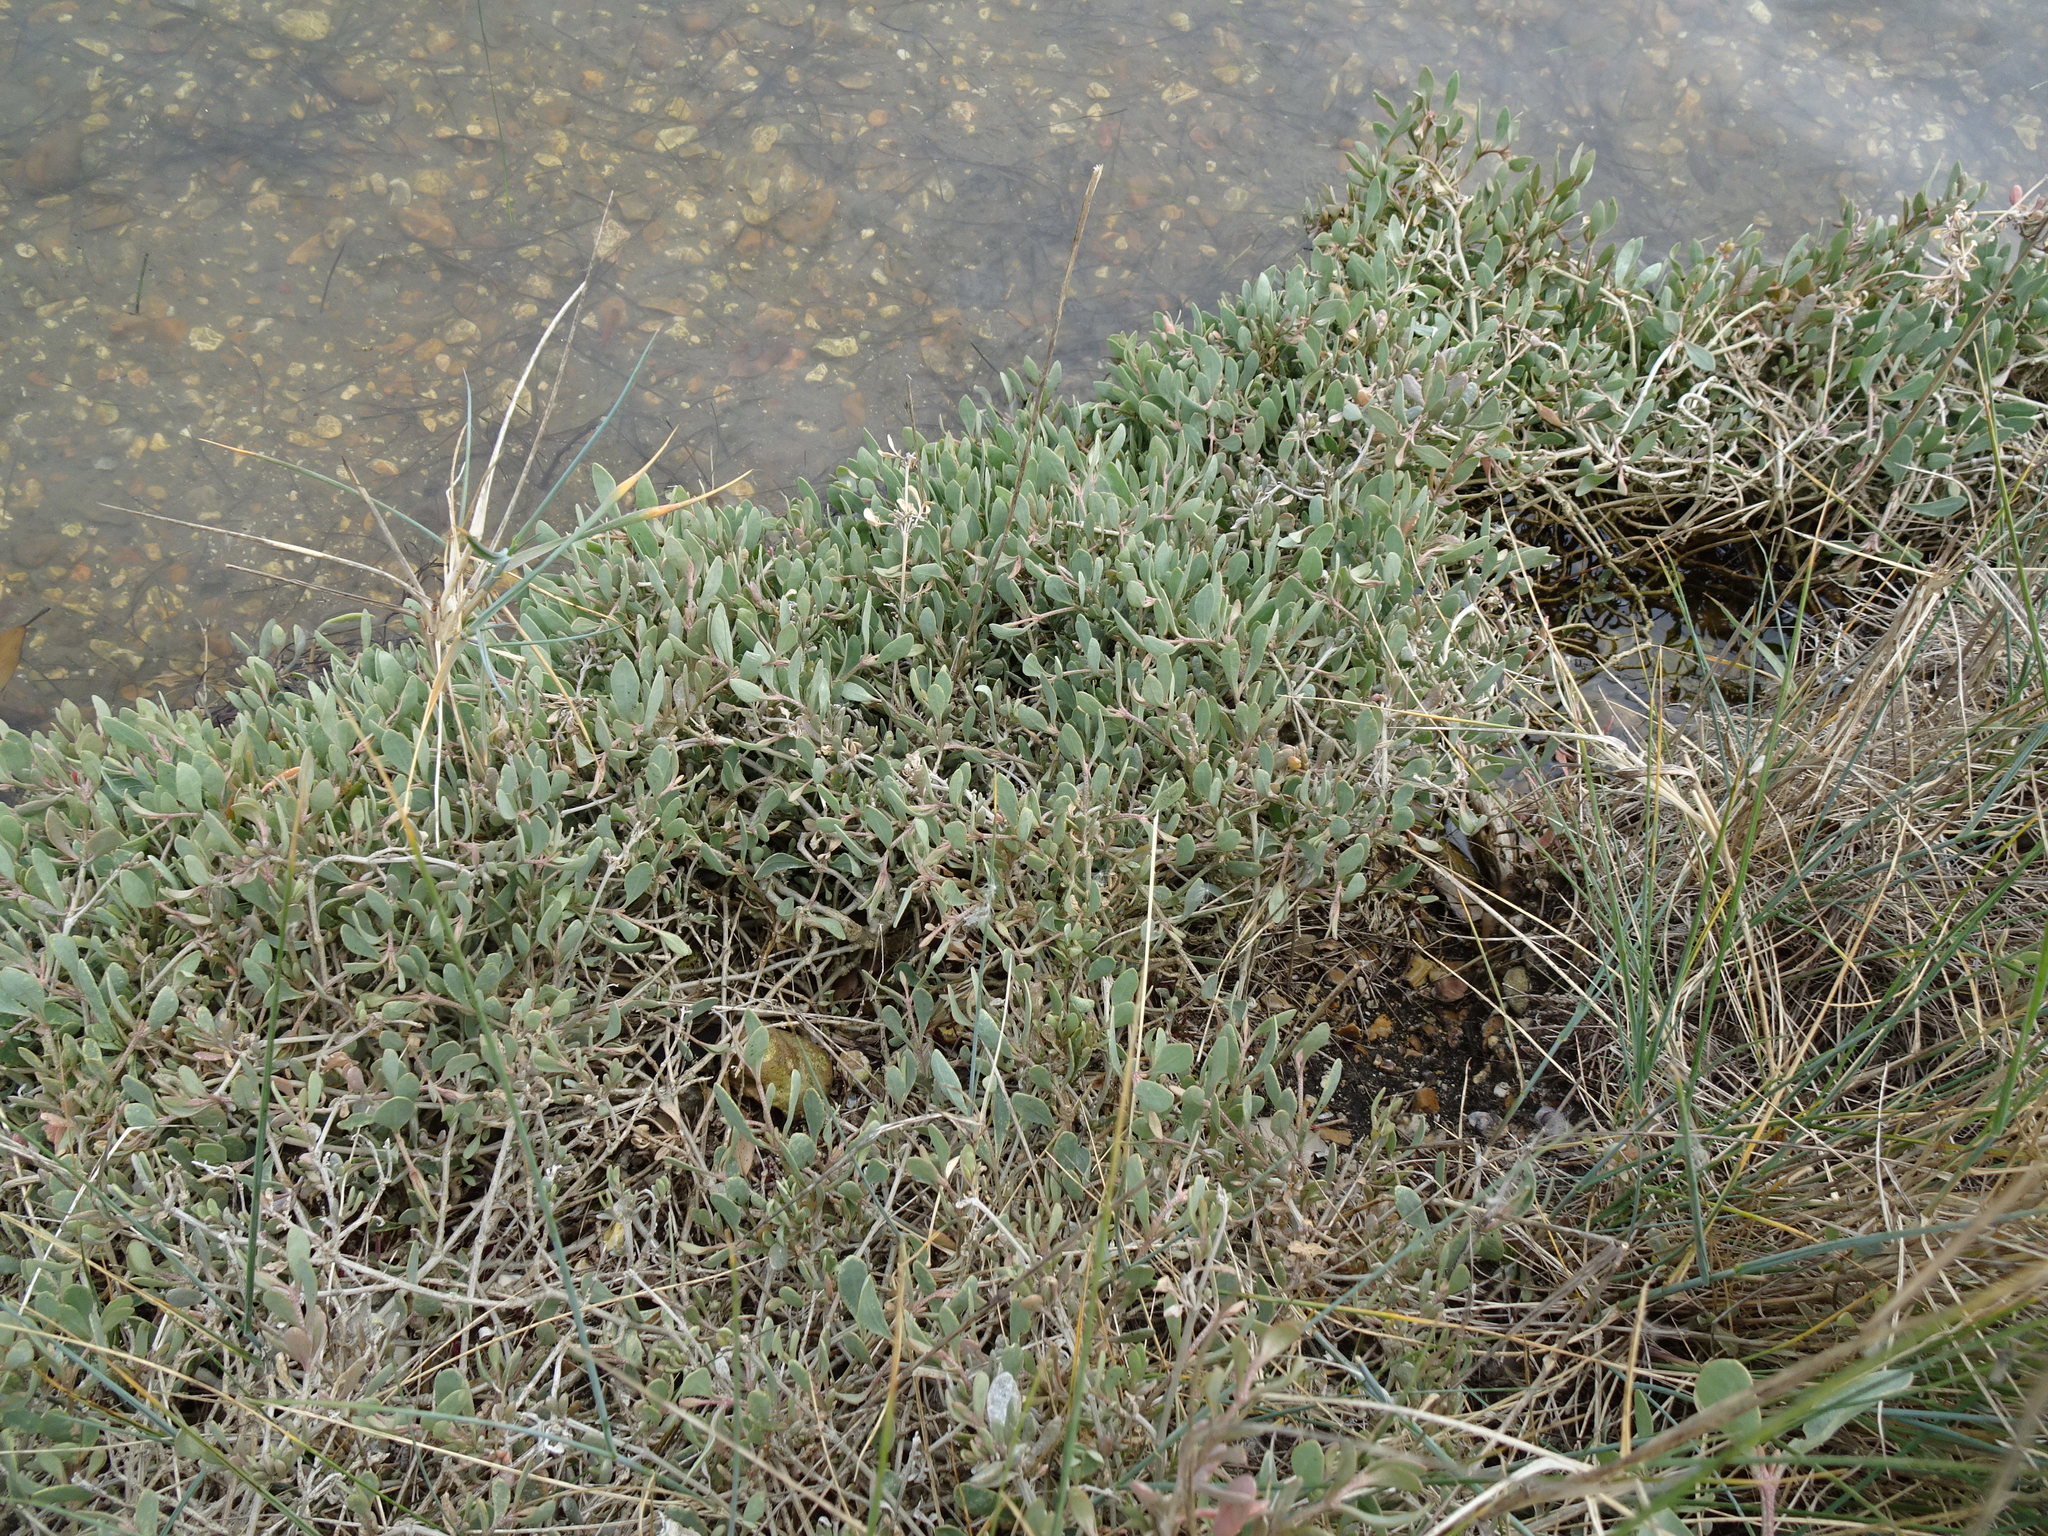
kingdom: Plantae
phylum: Tracheophyta
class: Magnoliopsida
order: Caryophyllales
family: Amaranthaceae
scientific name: Amaranthaceae
